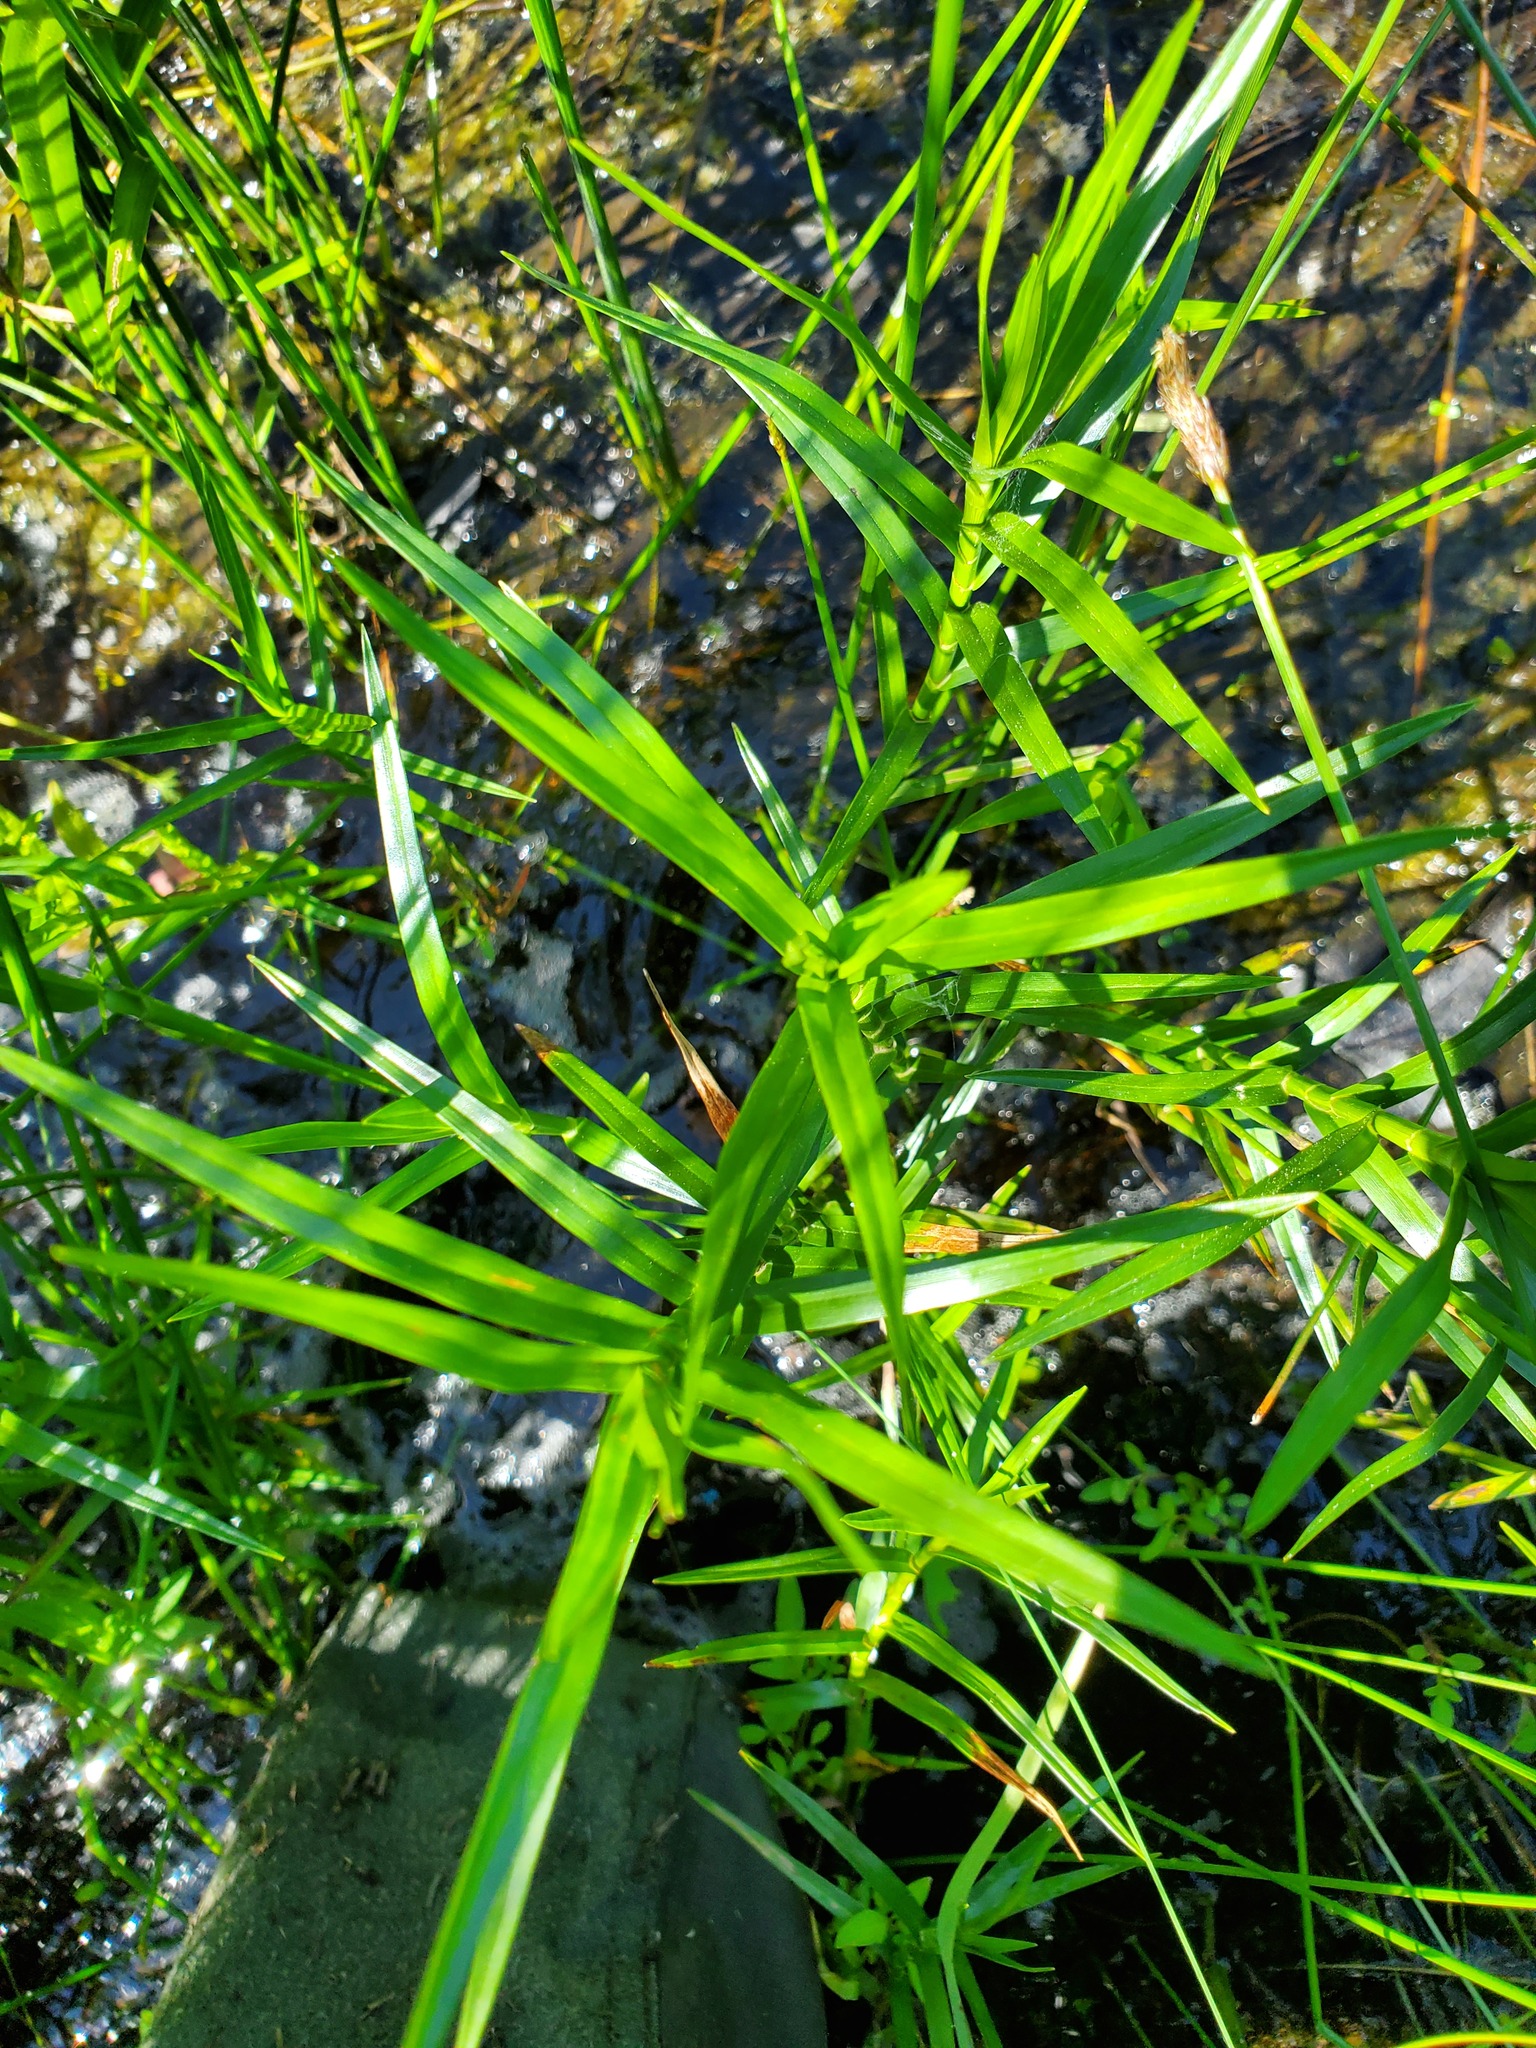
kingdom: Plantae
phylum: Tracheophyta
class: Liliopsida
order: Poales
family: Cyperaceae
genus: Dulichium
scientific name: Dulichium arundinaceum
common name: Three-way sedge
